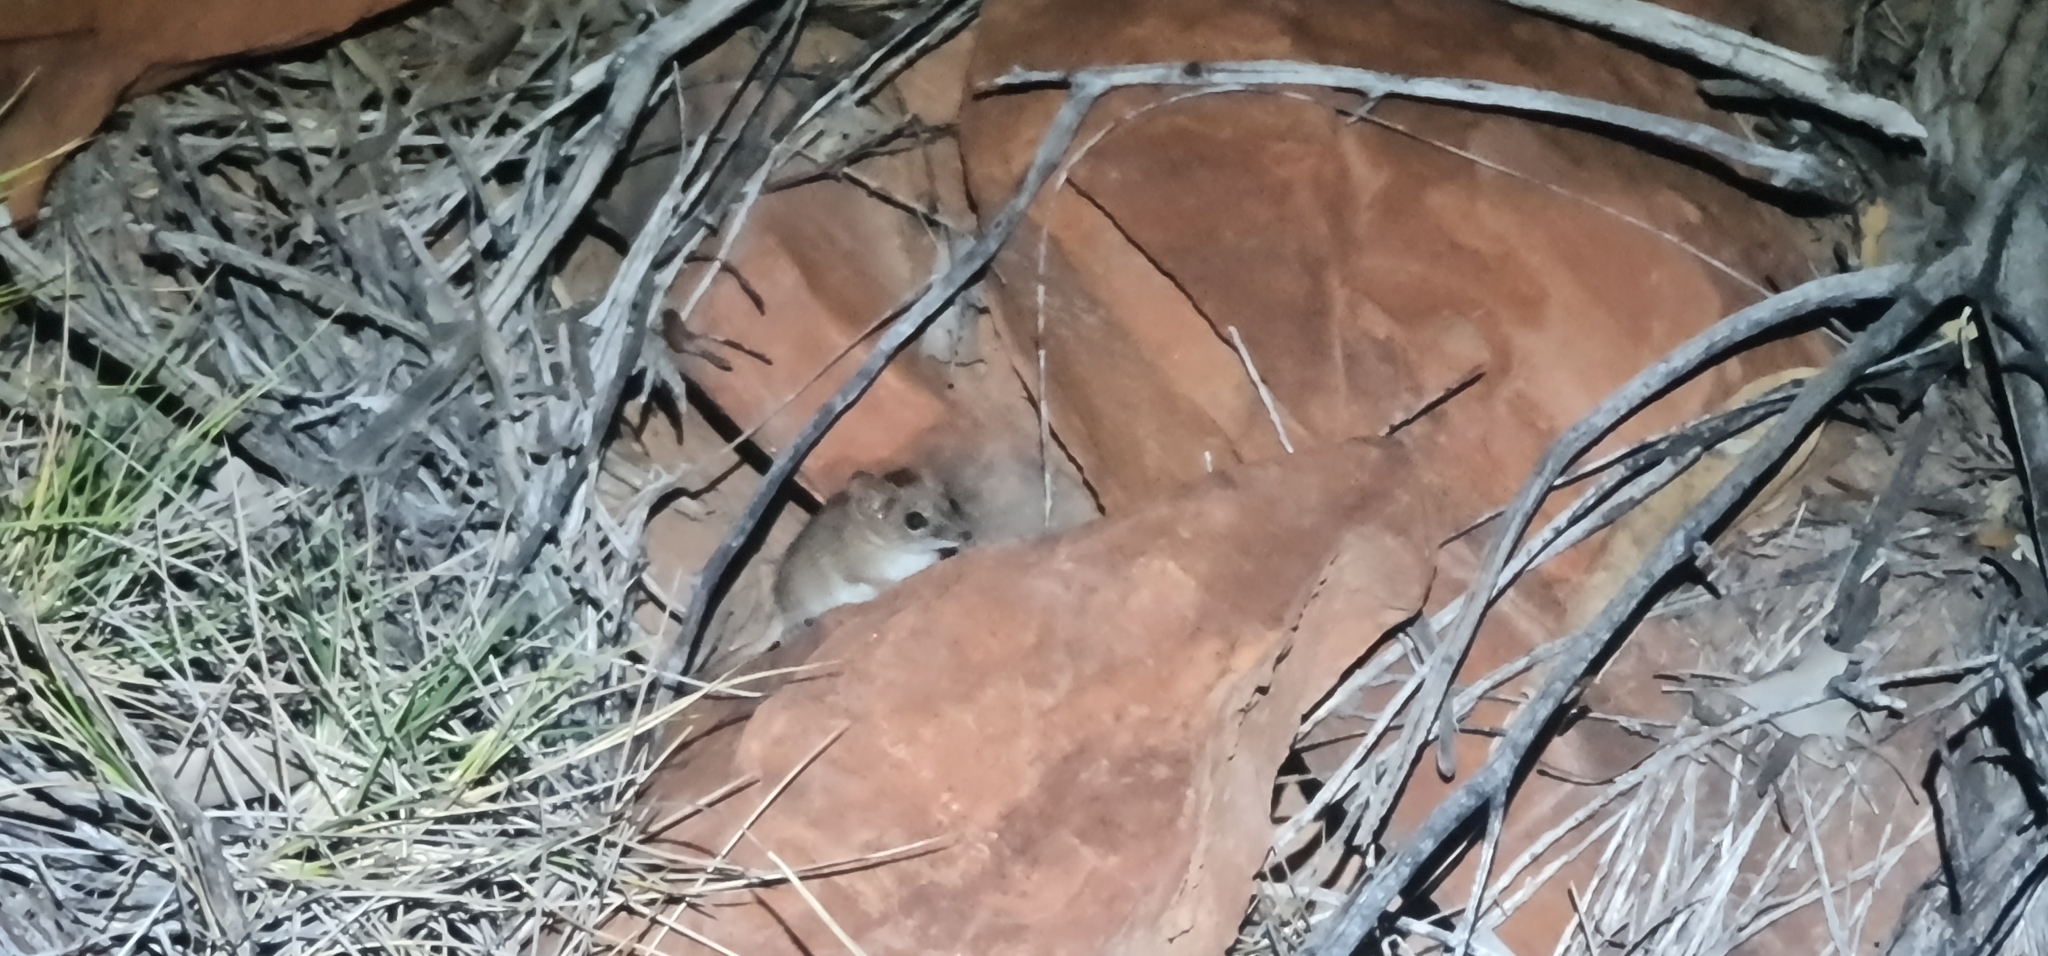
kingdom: Animalia
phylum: Chordata
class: Mammalia
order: Dasyuromorphia
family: Dasyuridae
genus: Pseudantechinus
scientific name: Pseudantechinus macdonnellensis
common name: Fat-tailed false antechinus
